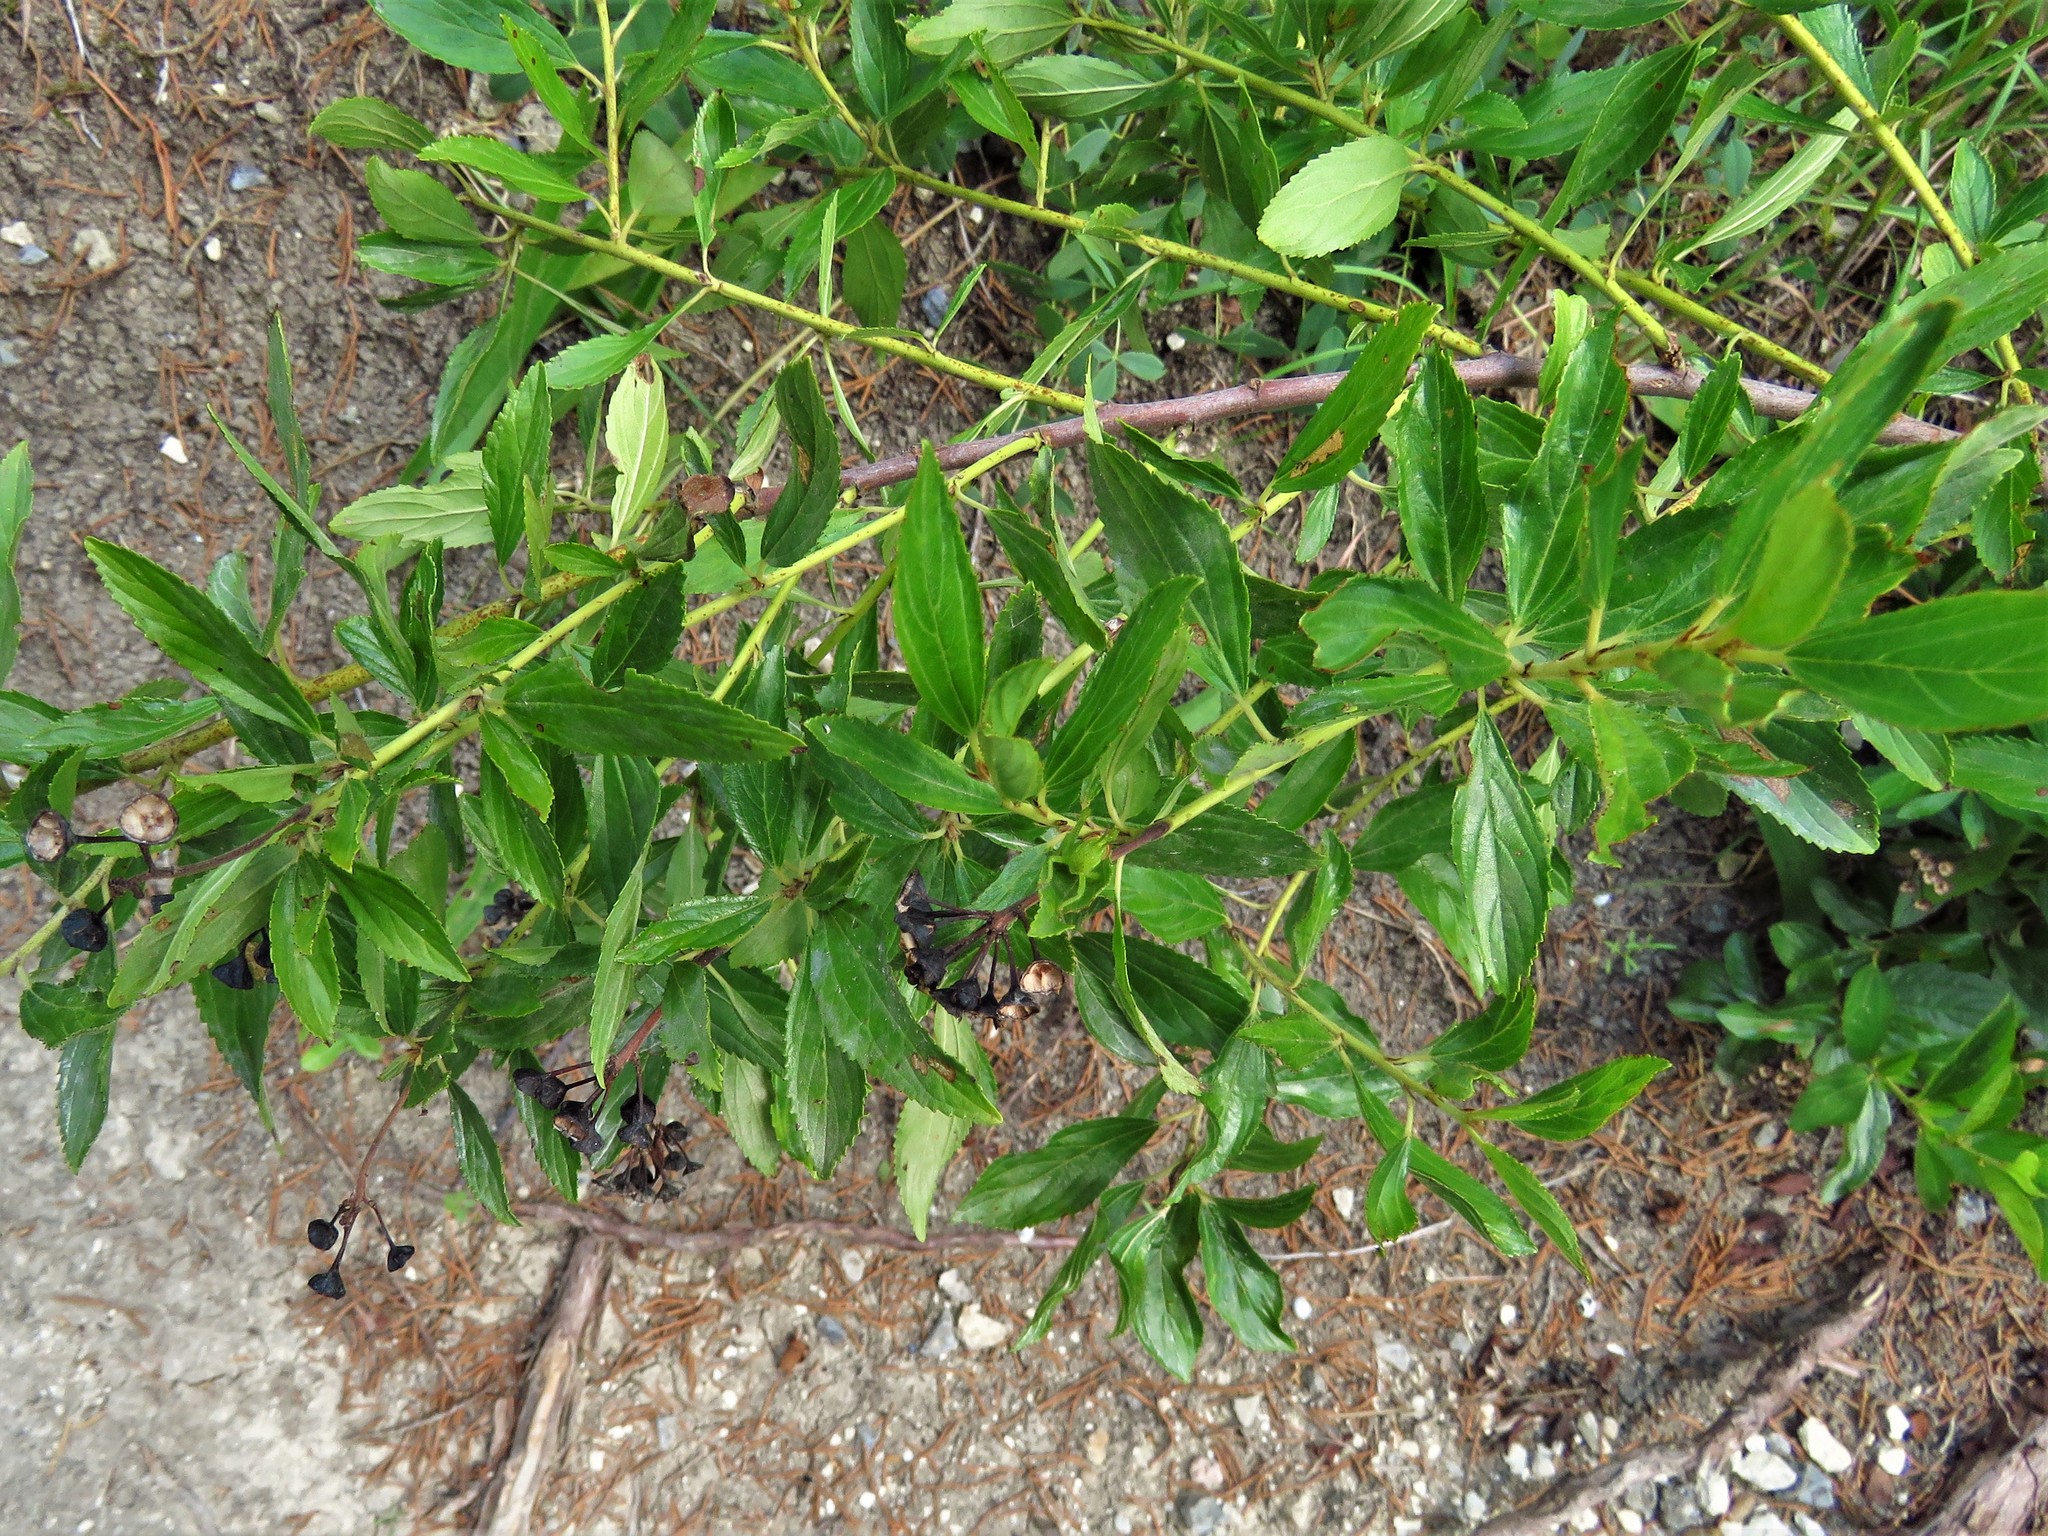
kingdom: Plantae
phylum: Tracheophyta
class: Magnoliopsida
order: Rosales
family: Rhamnaceae
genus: Ceanothus
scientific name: Ceanothus herbaceus
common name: Inland ceanothus
